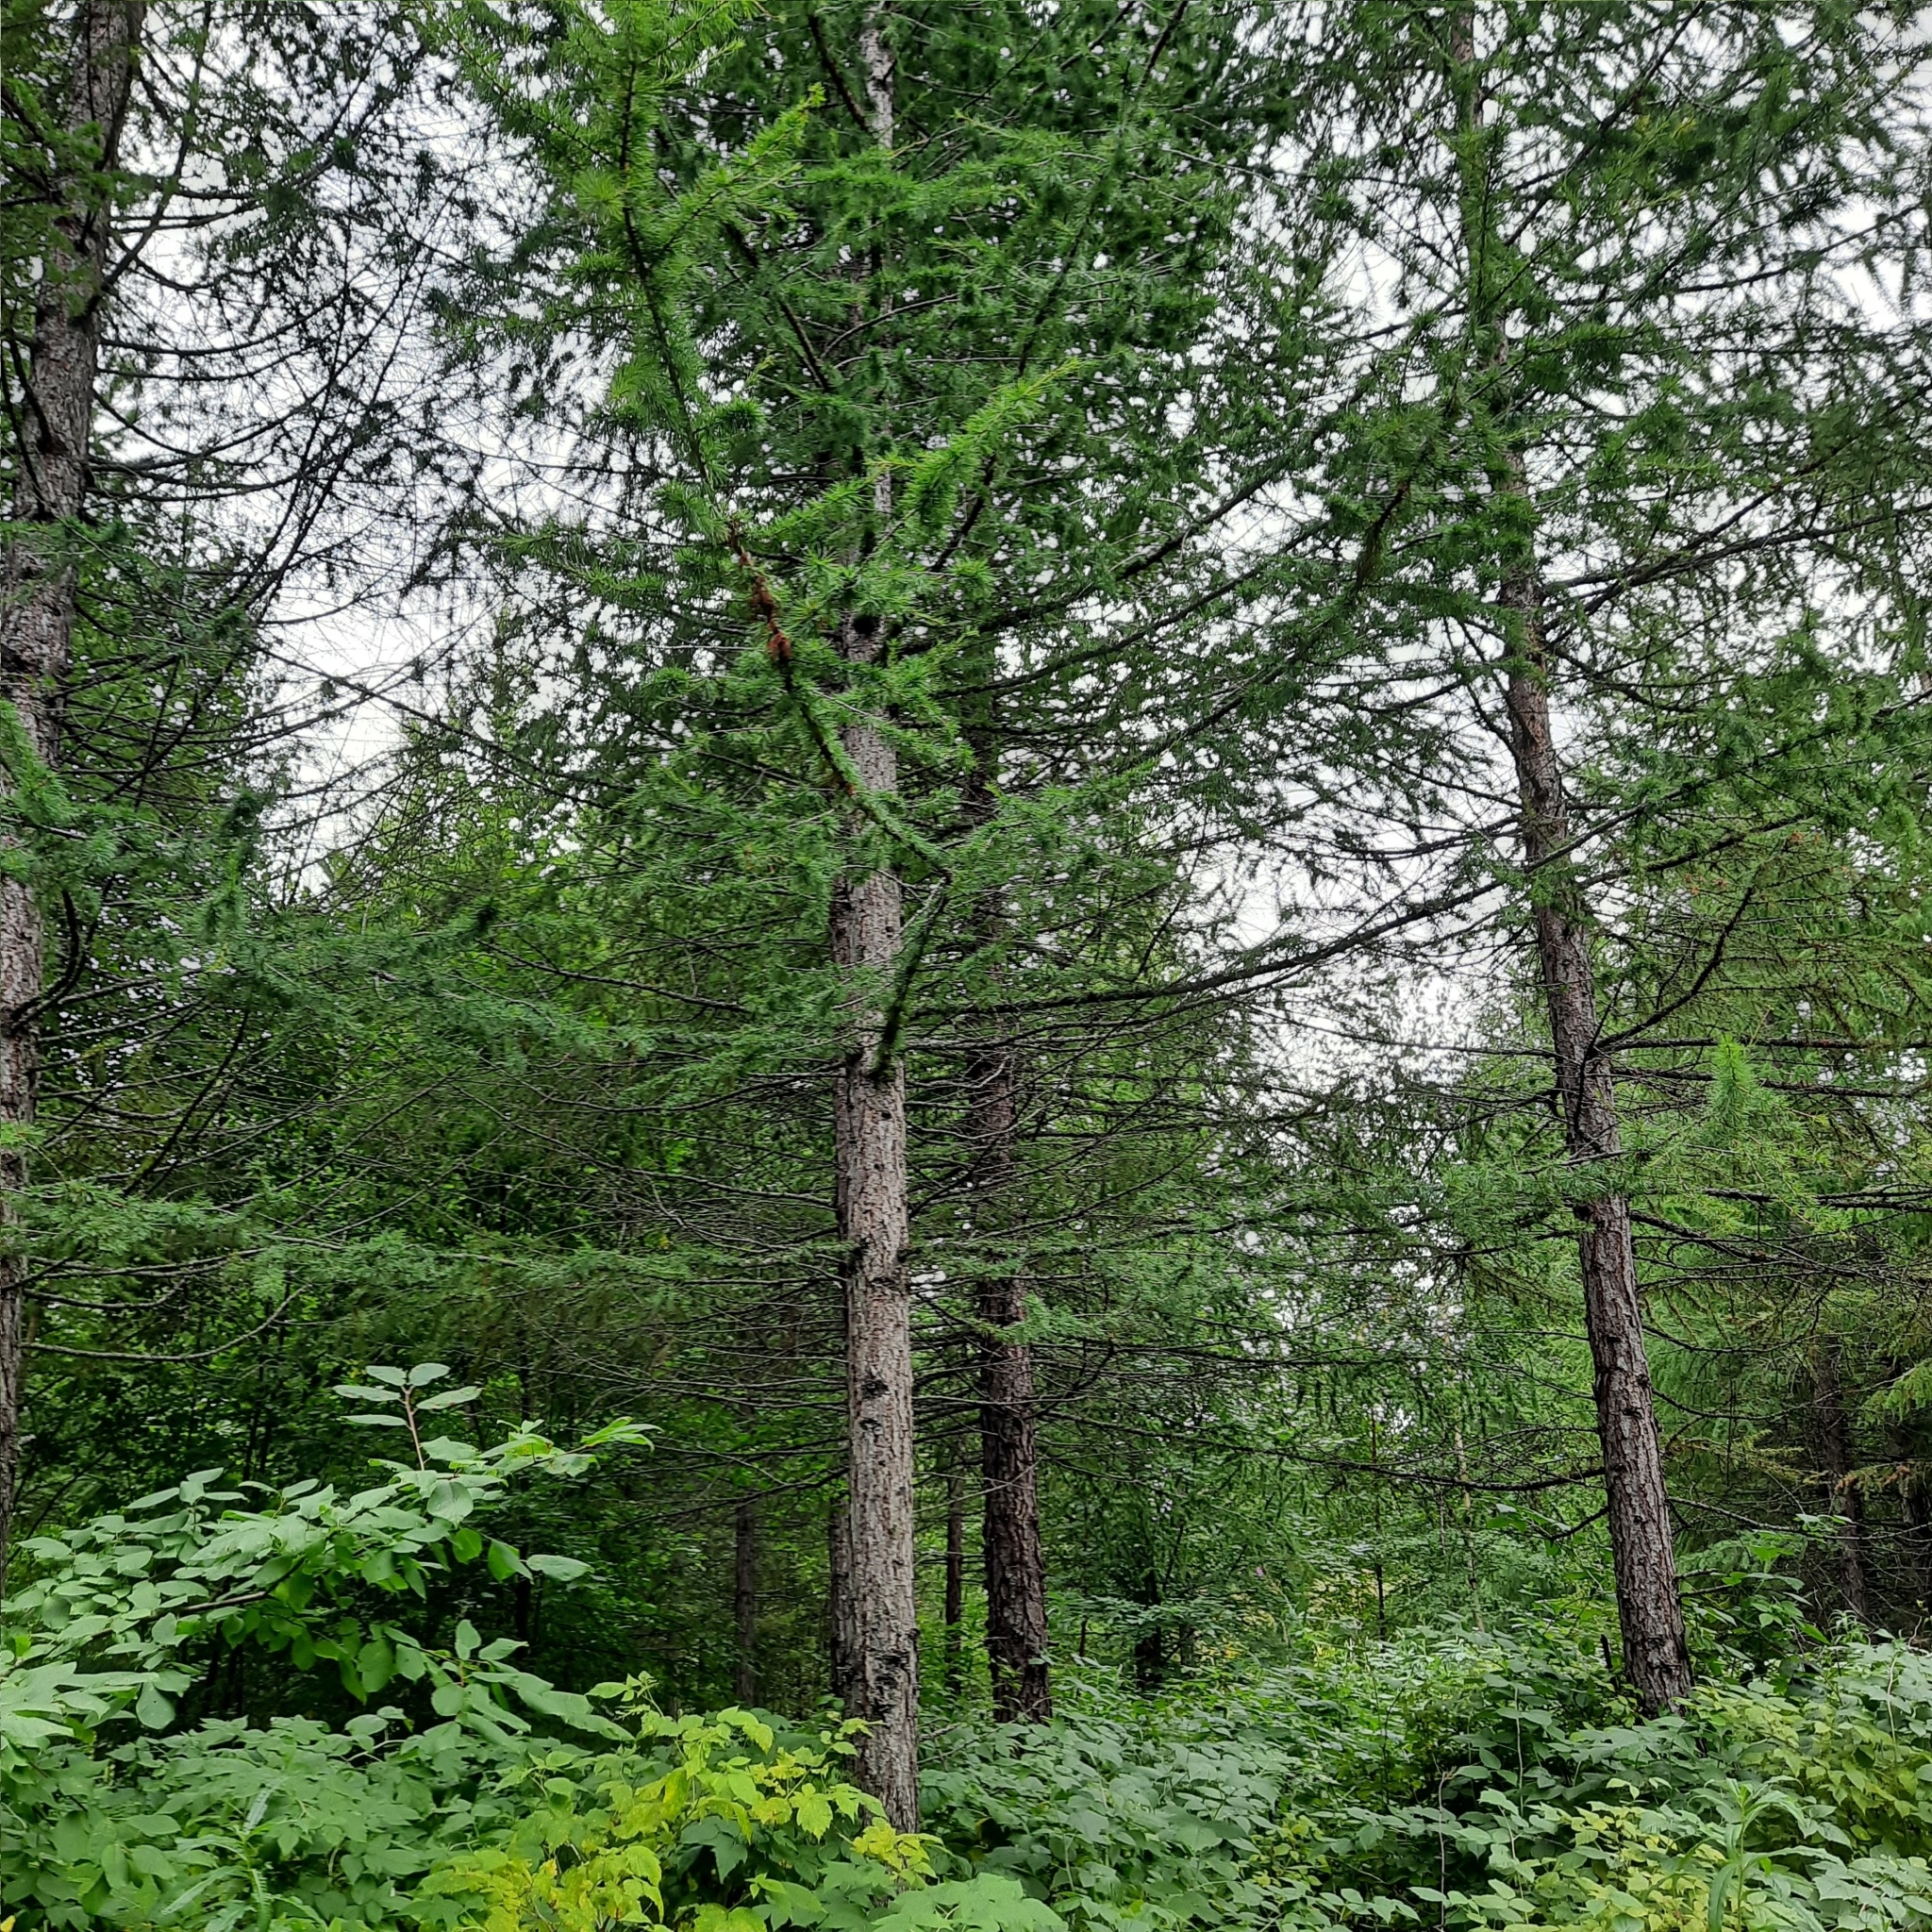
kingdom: Plantae
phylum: Tracheophyta
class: Pinopsida
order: Pinales
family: Pinaceae
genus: Larix
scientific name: Larix sibirica
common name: Siberian larch
